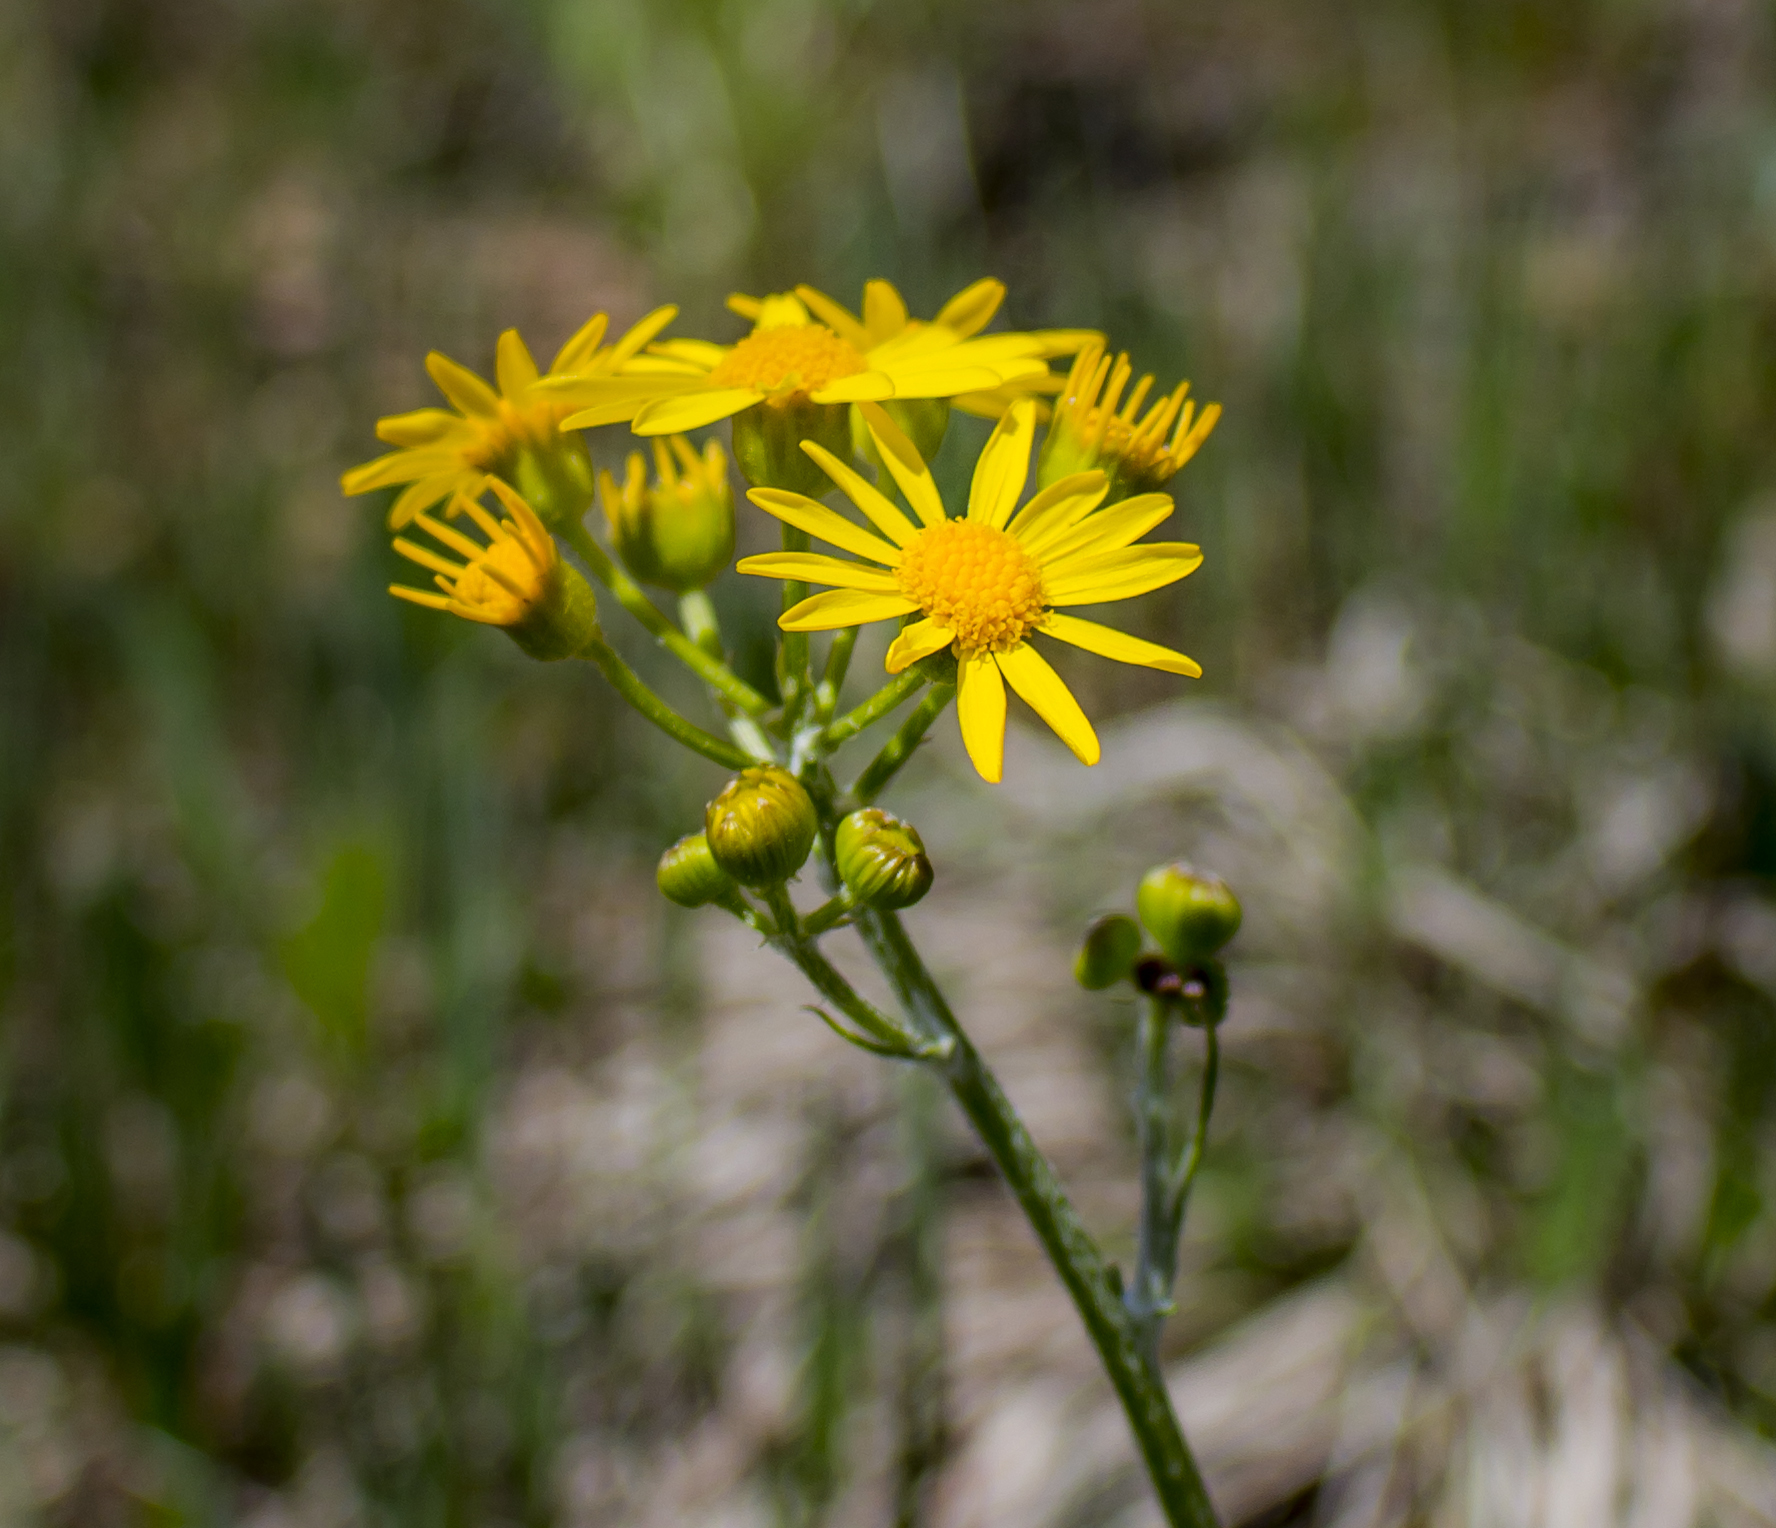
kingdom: Plantae
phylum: Tracheophyta
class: Magnoliopsida
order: Asterales
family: Asteraceae
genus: Packera
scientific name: Packera plattensis
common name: Prairie groundsel
